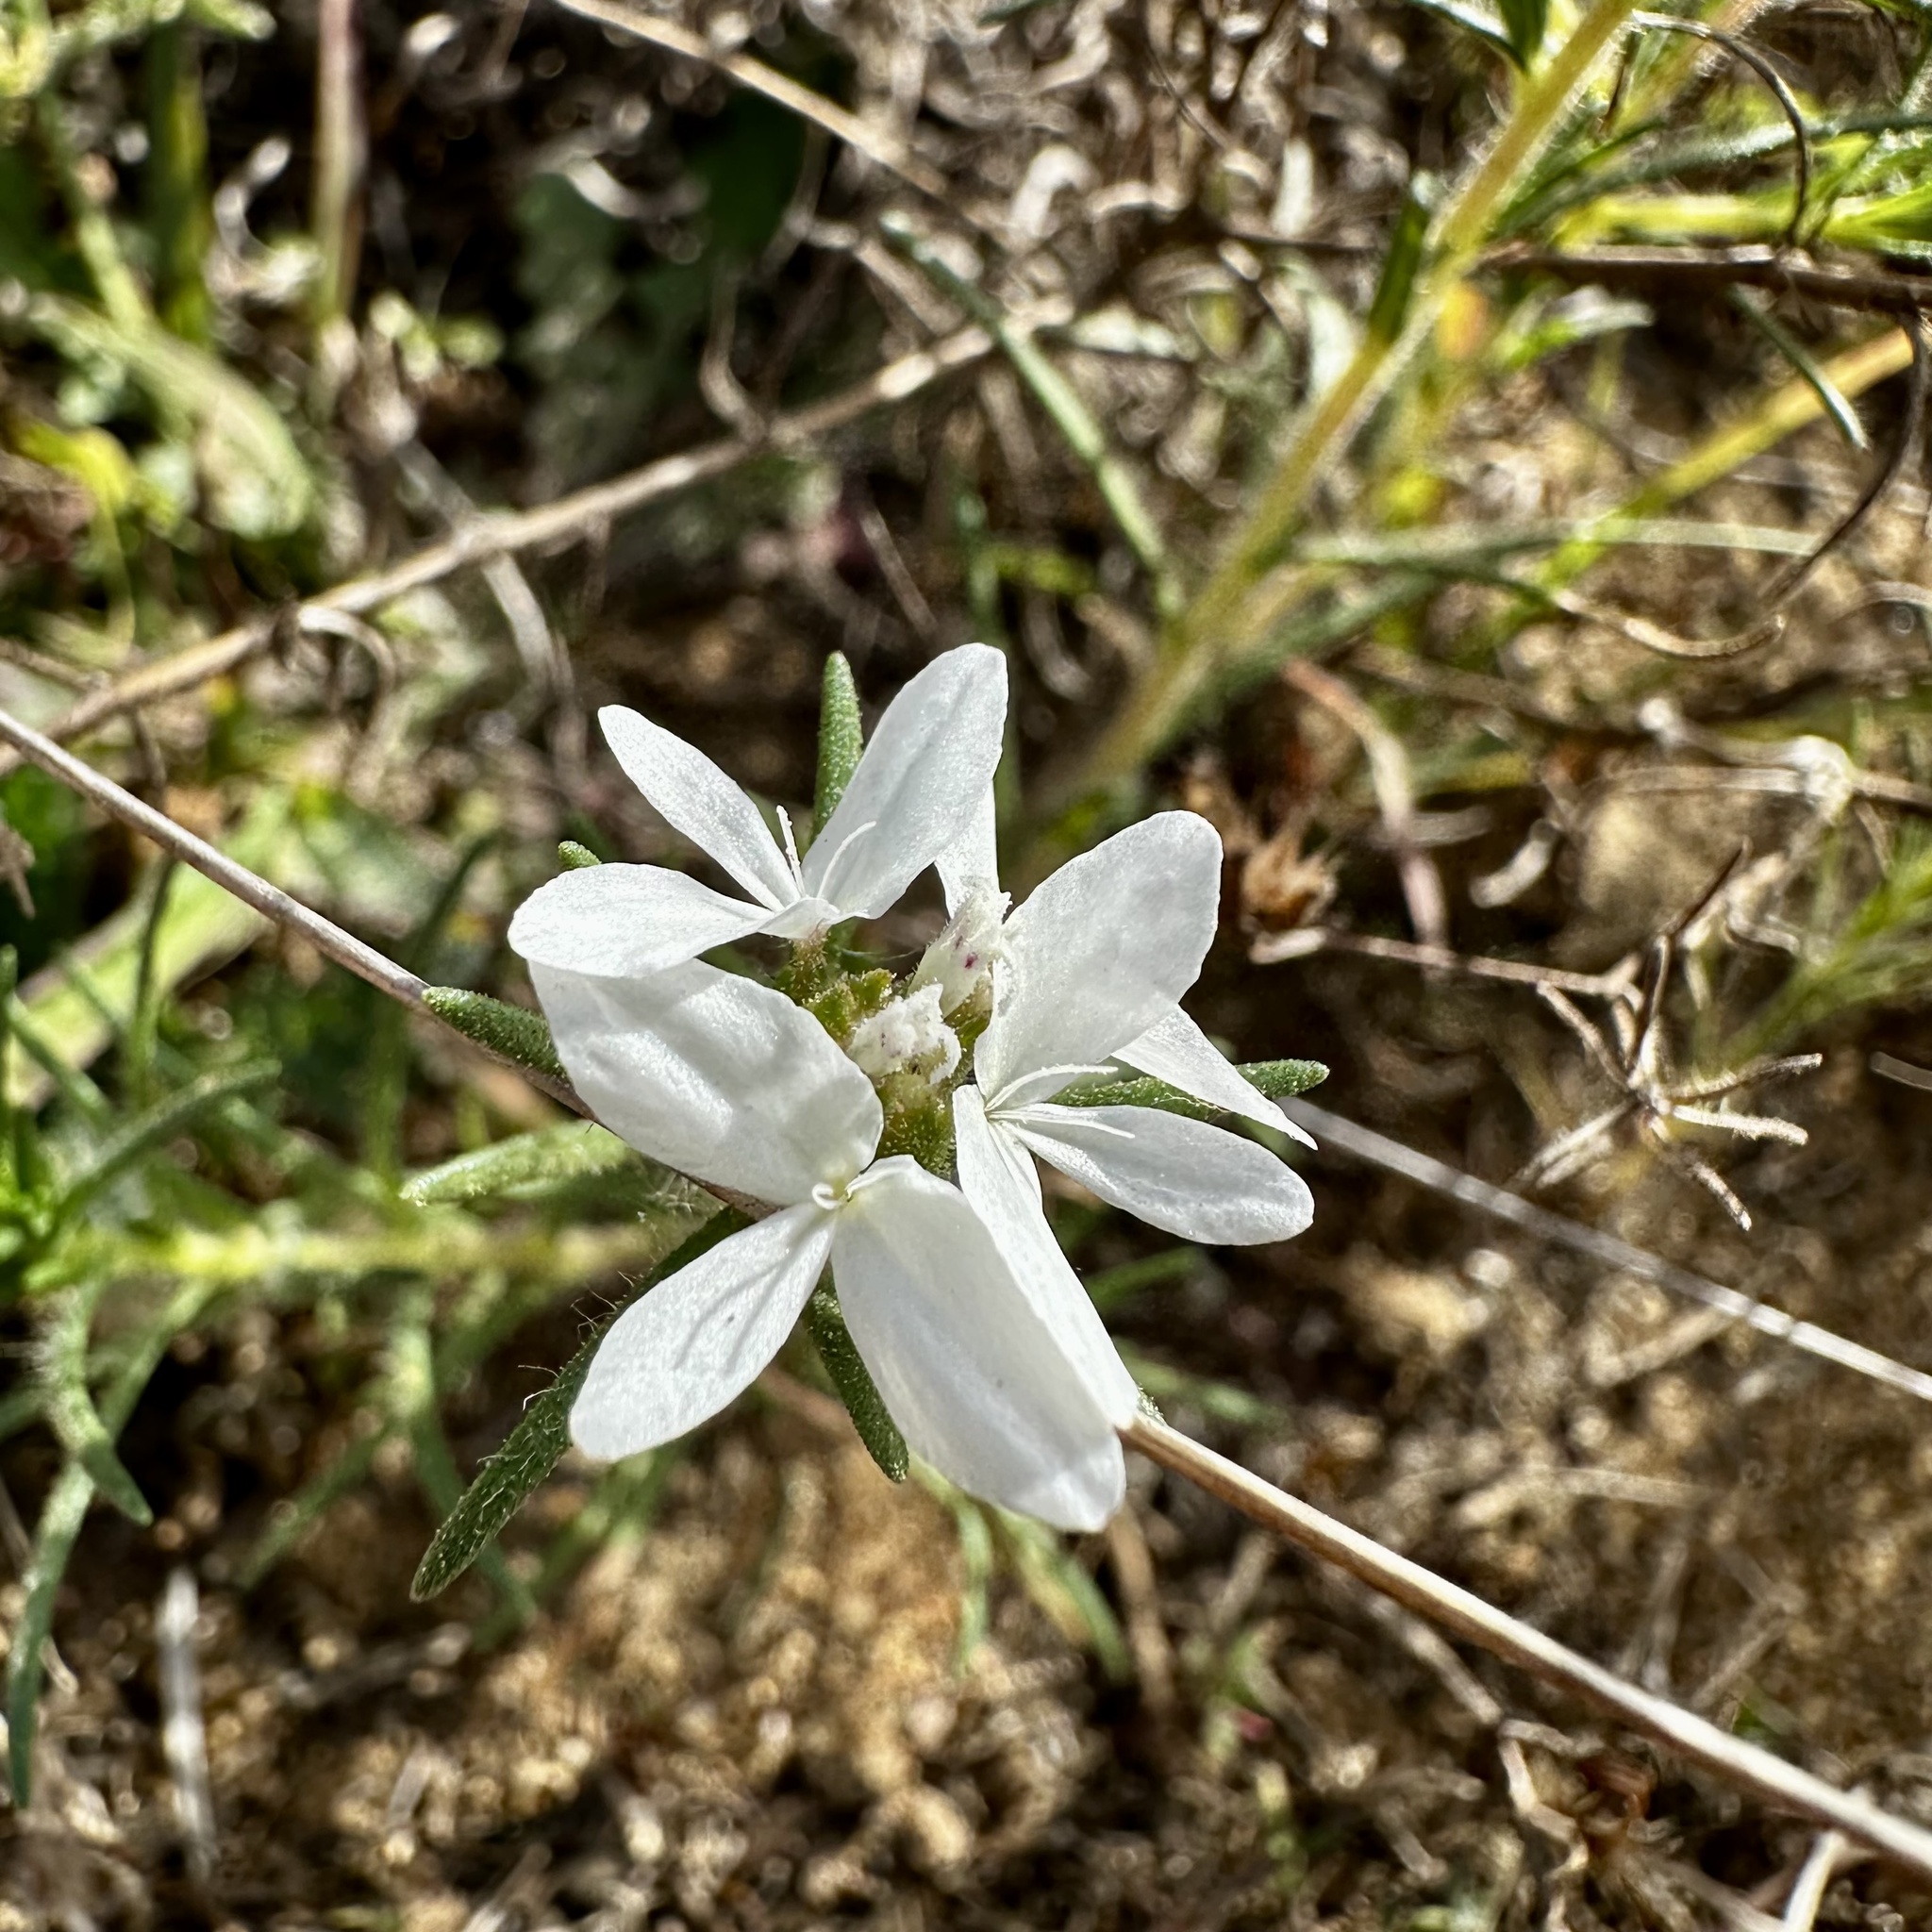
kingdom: Plantae
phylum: Tracheophyta
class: Magnoliopsida
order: Asterales
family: Asteraceae
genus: Osmadenia
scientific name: Osmadenia tenella
